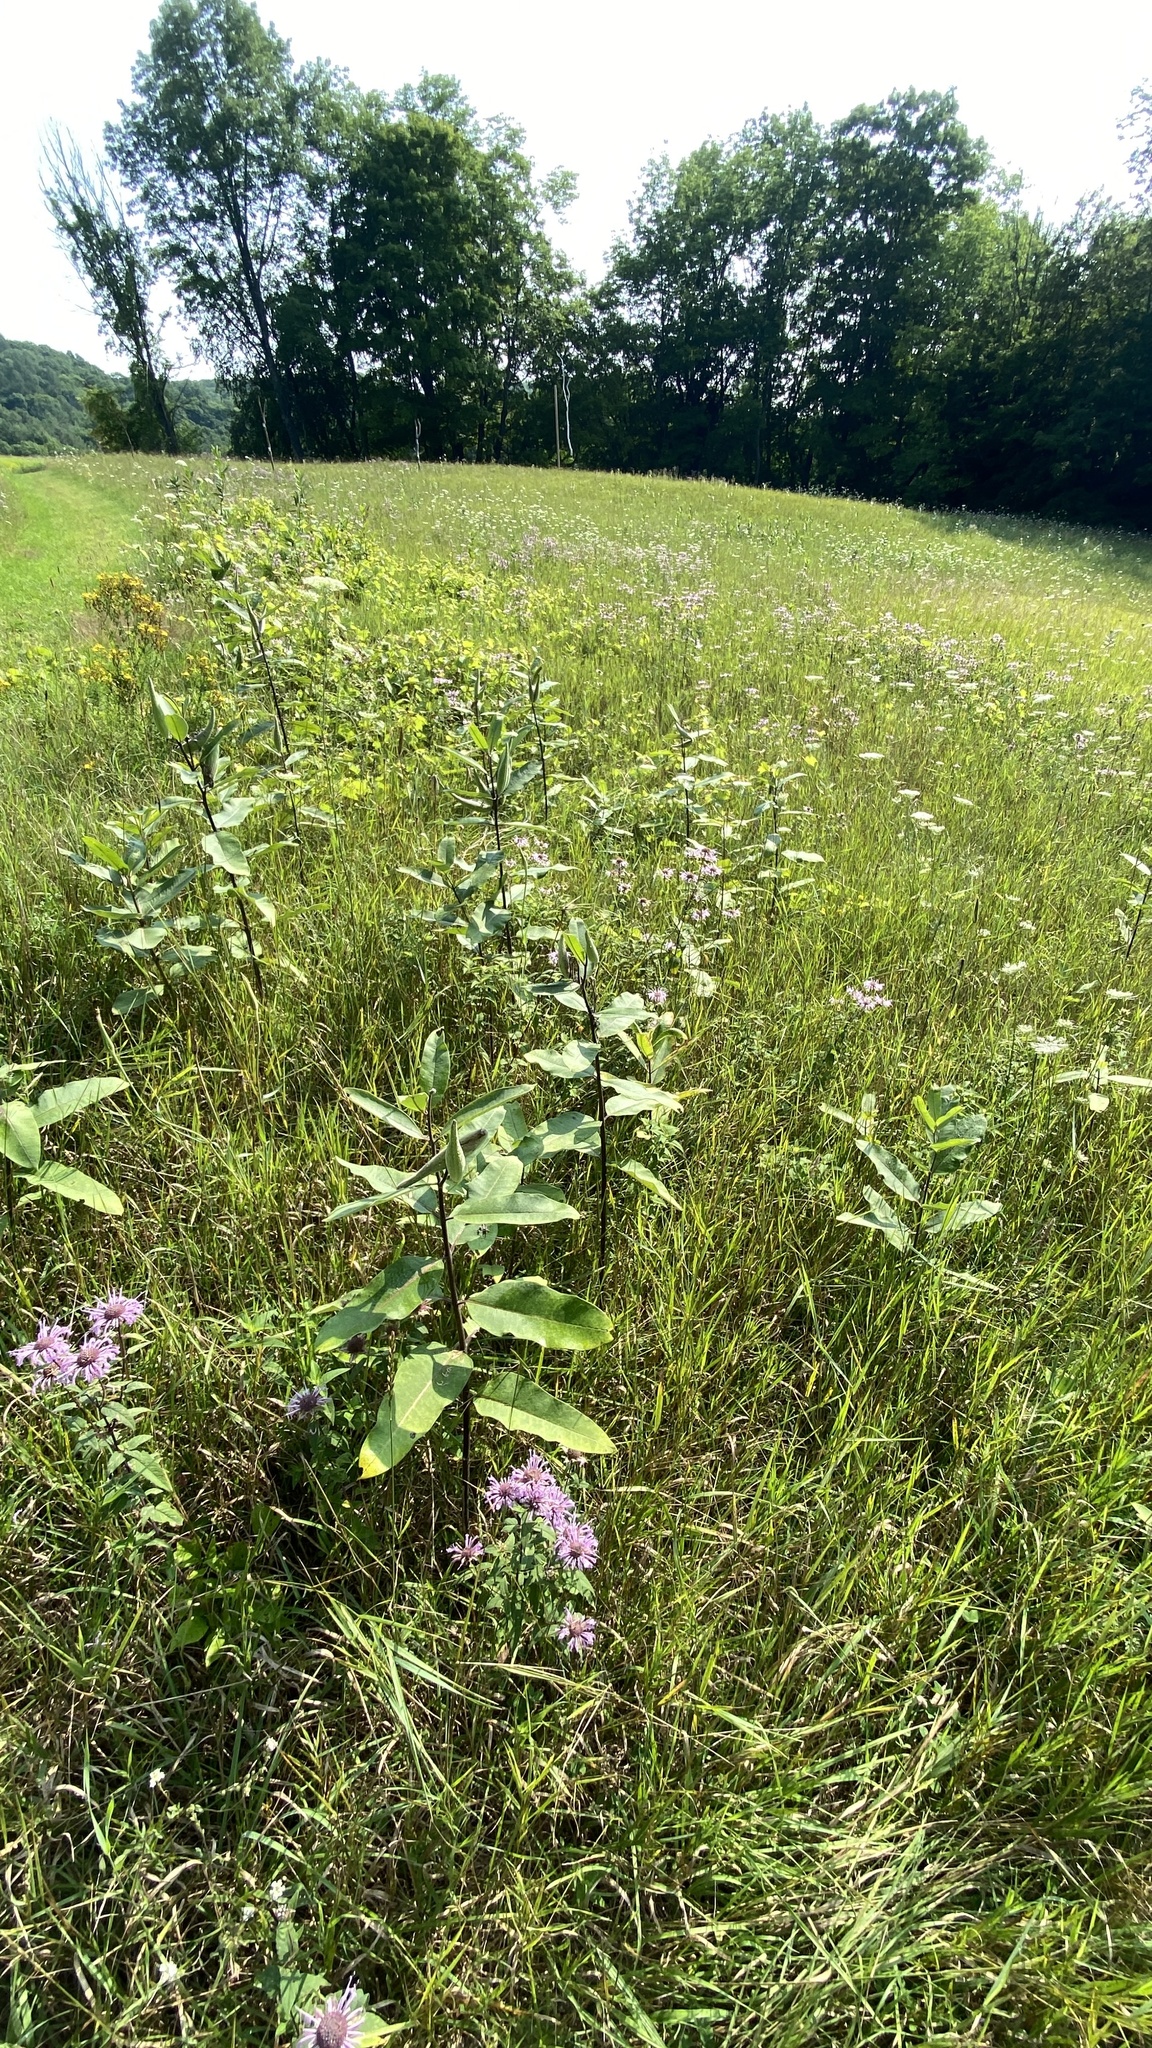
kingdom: Plantae
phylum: Tracheophyta
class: Magnoliopsida
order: Gentianales
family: Apocynaceae
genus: Asclepias
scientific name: Asclepias syriaca
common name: Common milkweed
